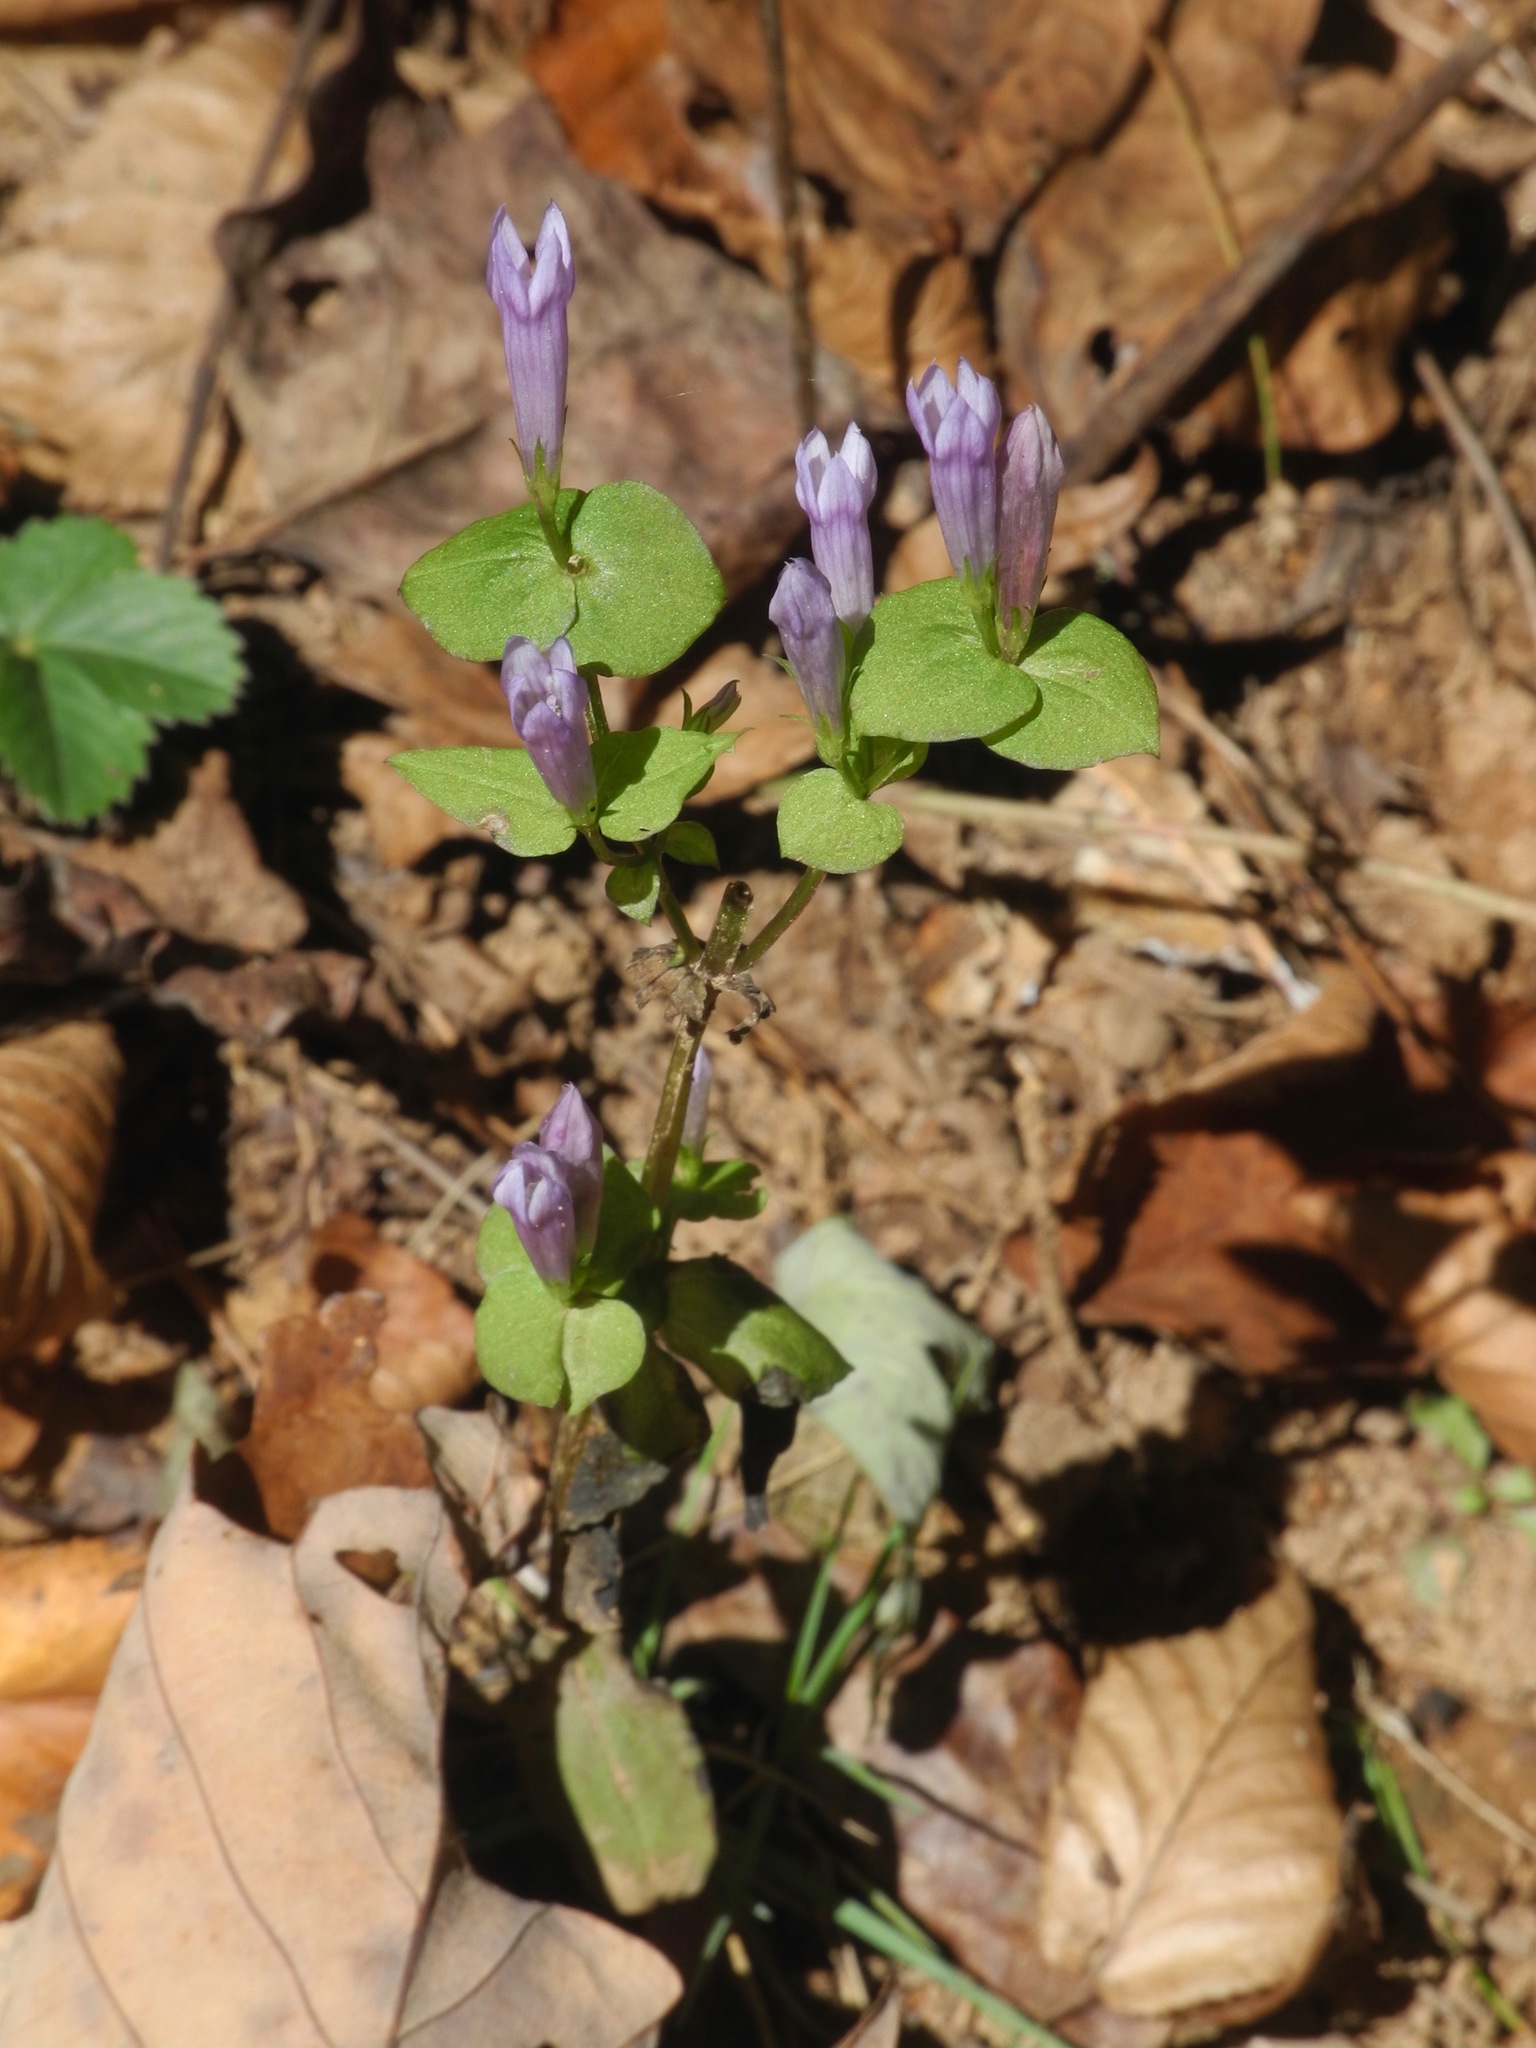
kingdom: Plantae
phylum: Tracheophyta
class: Magnoliopsida
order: Gentianales
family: Gentianaceae
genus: Gentianella
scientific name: Gentianella quinquefolia
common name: Agueweed
